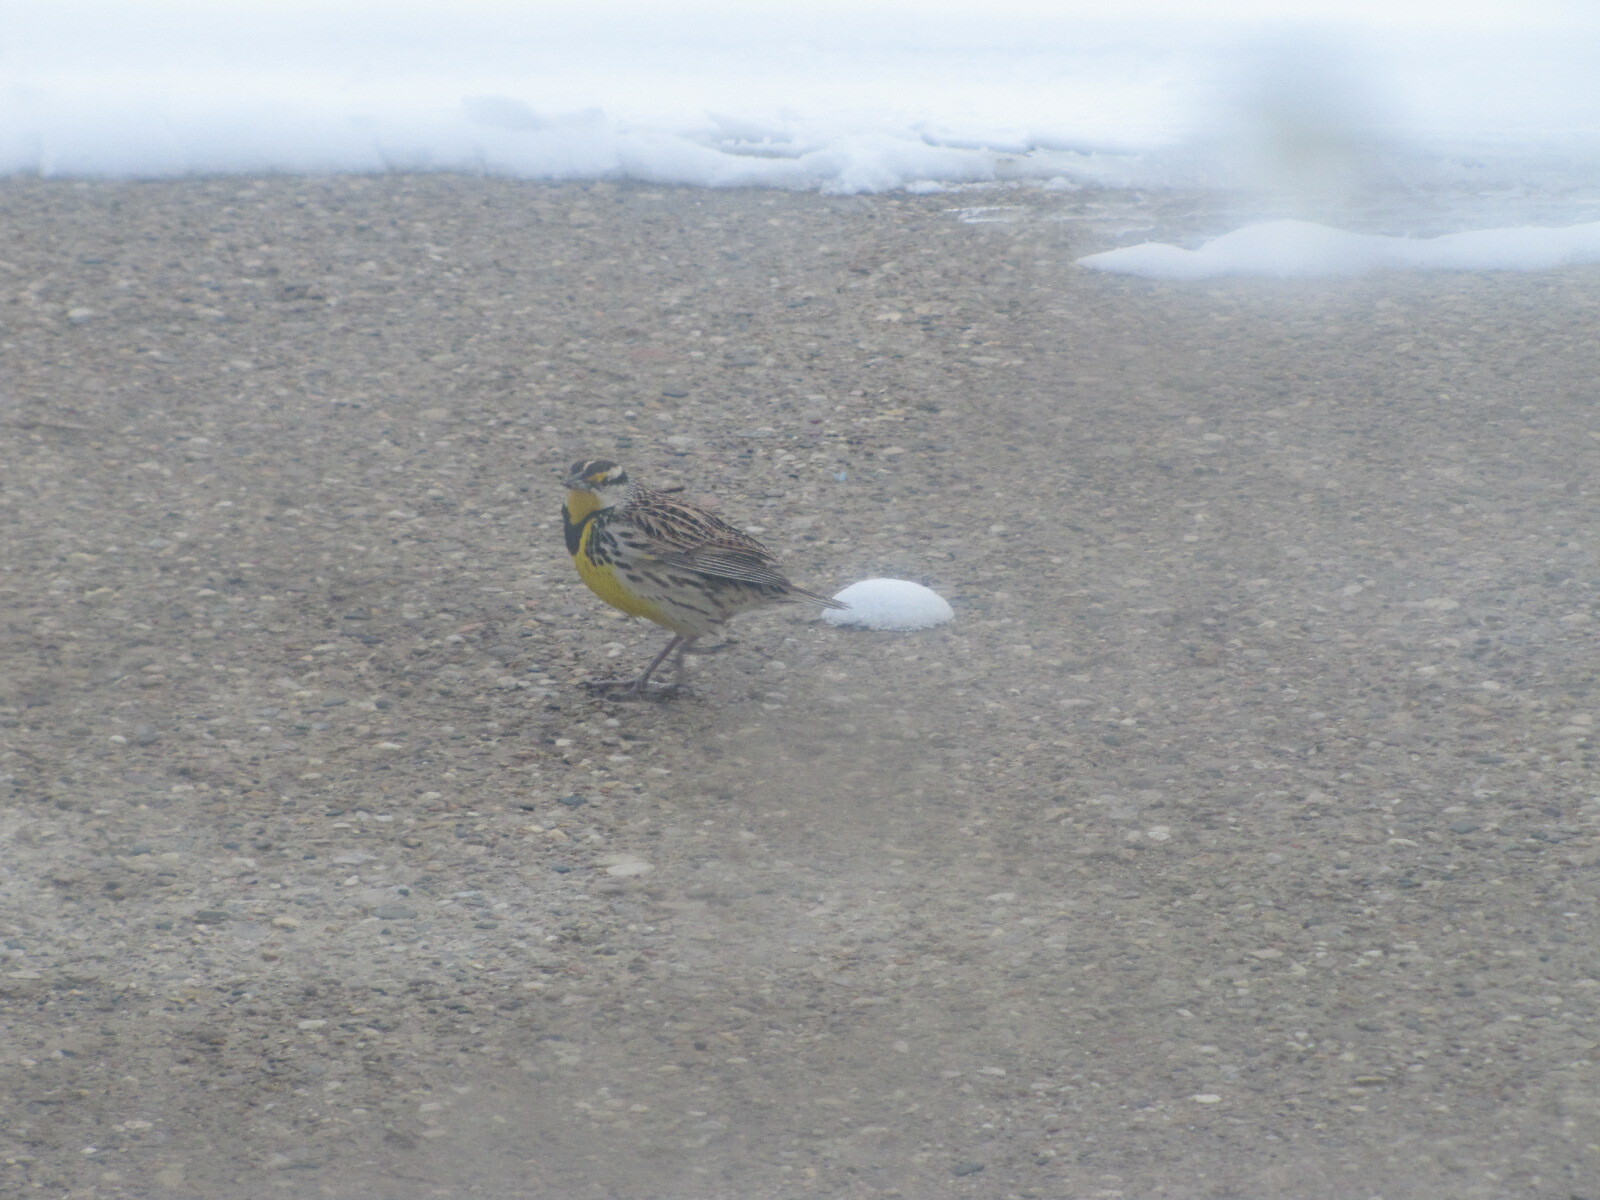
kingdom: Animalia
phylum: Chordata
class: Aves
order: Passeriformes
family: Icteridae
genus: Sturnella
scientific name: Sturnella magna
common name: Eastern meadowlark
